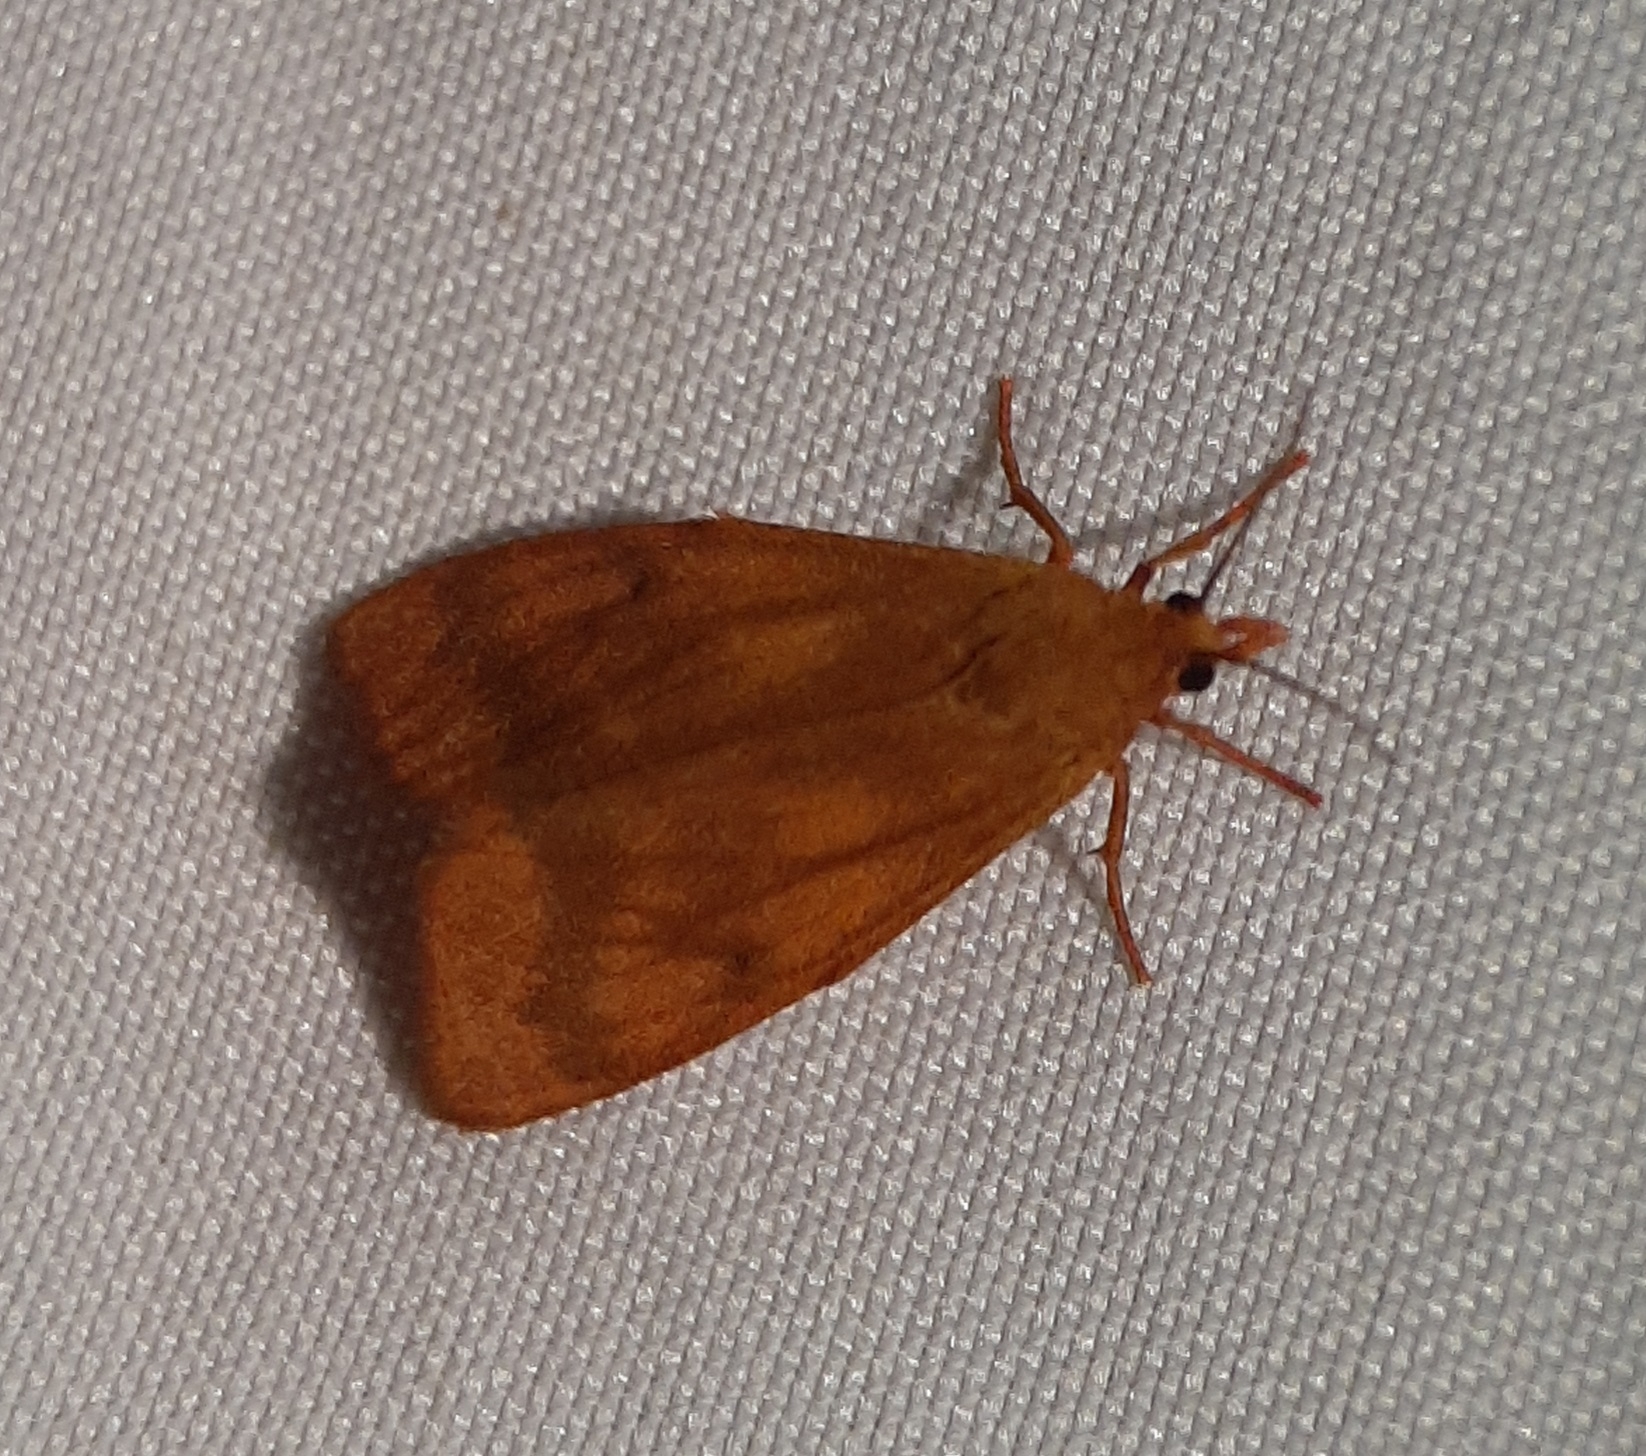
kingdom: Animalia
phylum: Arthropoda
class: Insecta
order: Lepidoptera
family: Erebidae
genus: Virbia
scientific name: Virbia aurantiaca
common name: Orange virbia moth
